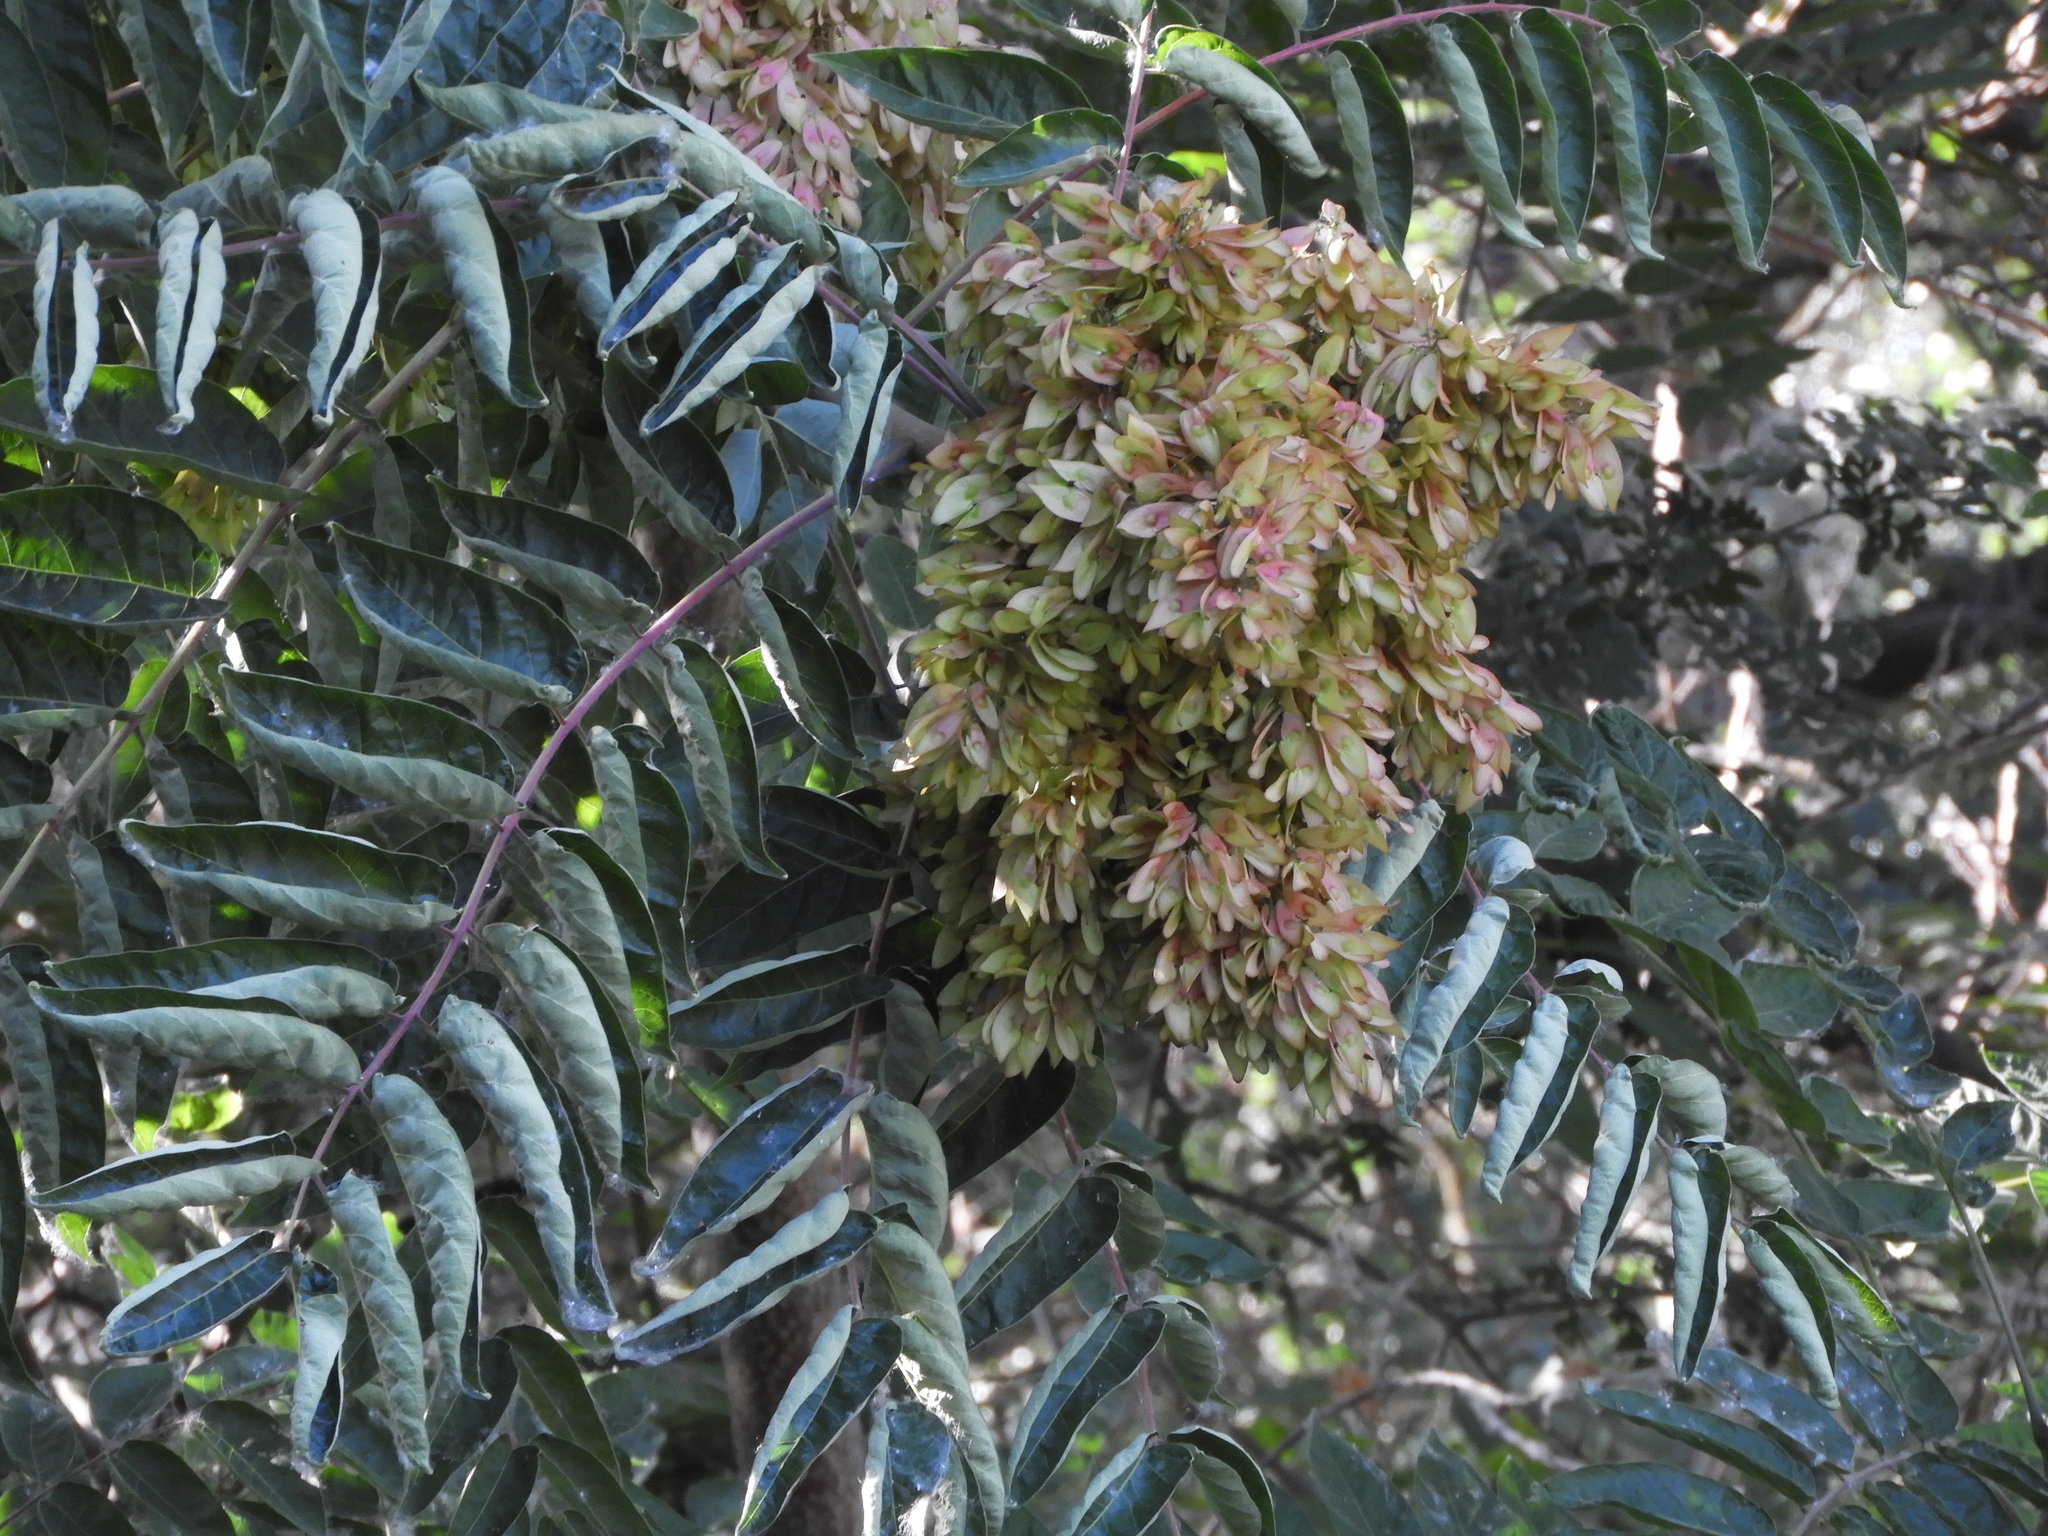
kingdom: Plantae
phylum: Tracheophyta
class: Magnoliopsida
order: Sapindales
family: Simaroubaceae
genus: Ailanthus
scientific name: Ailanthus altissima
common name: Tree-of-heaven
